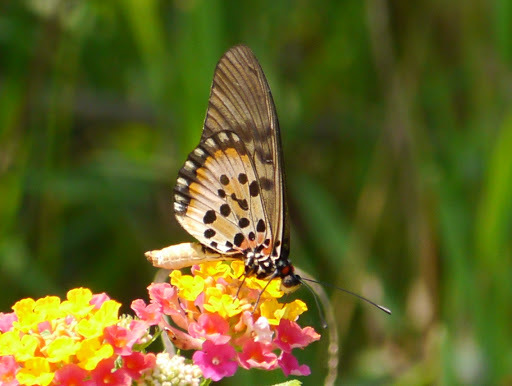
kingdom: Animalia
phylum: Arthropoda
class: Insecta
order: Lepidoptera
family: Nymphalidae
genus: Rubraea
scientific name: Rubraea
